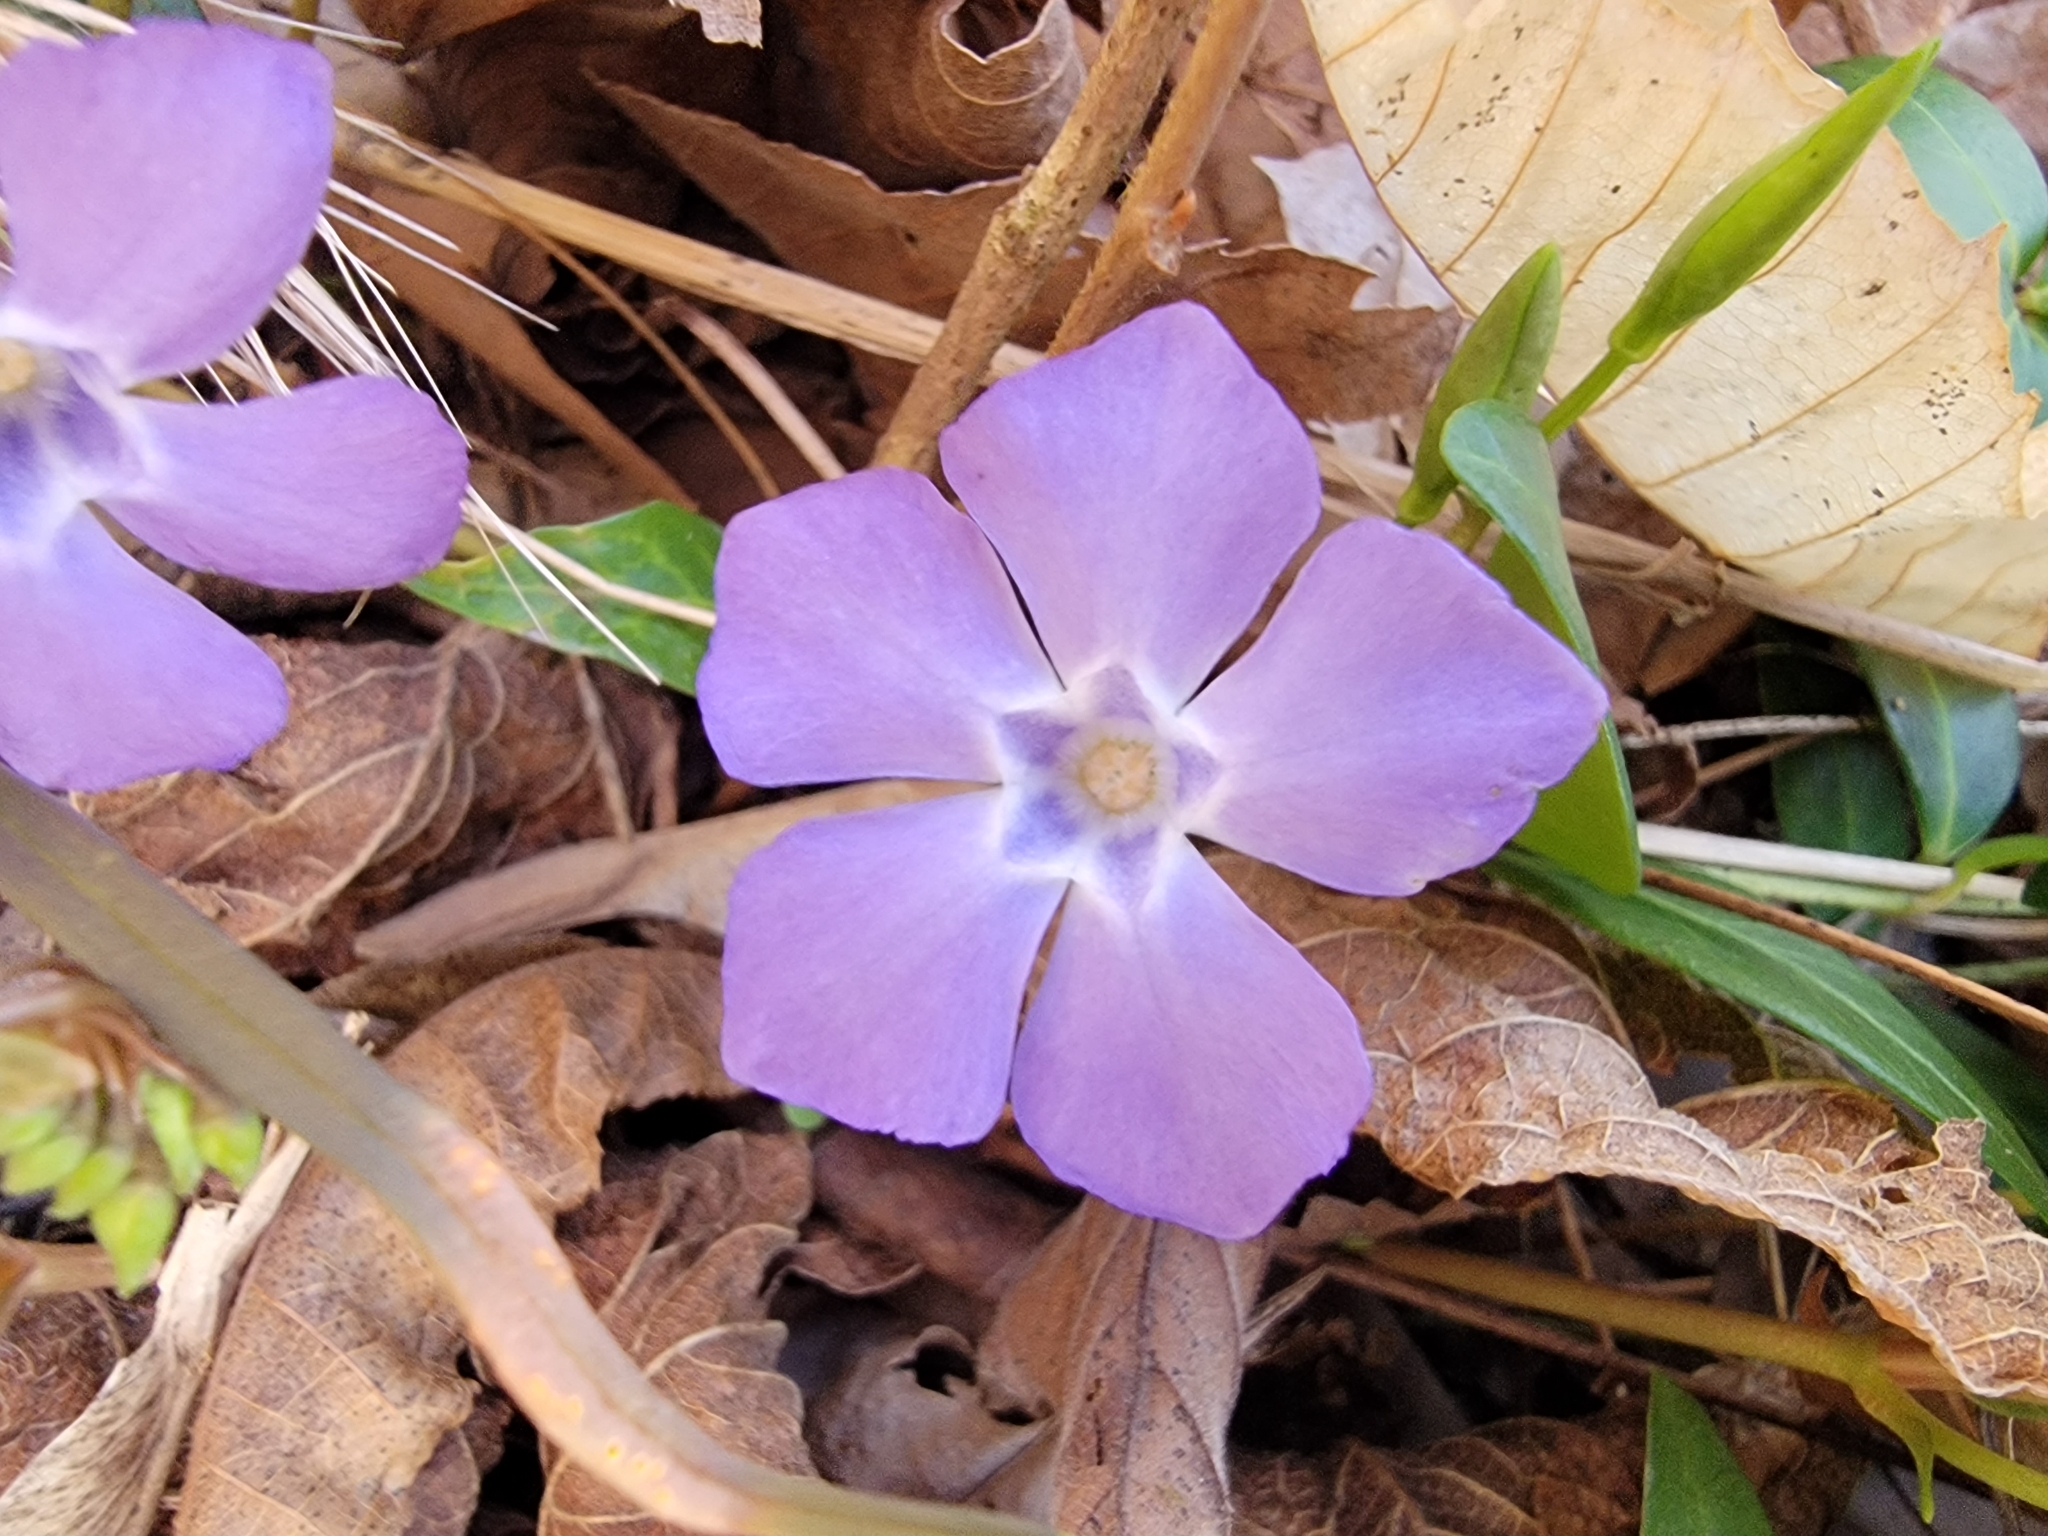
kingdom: Plantae
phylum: Tracheophyta
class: Magnoliopsida
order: Gentianales
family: Apocynaceae
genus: Vinca
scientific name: Vinca minor
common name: Lesser periwinkle
